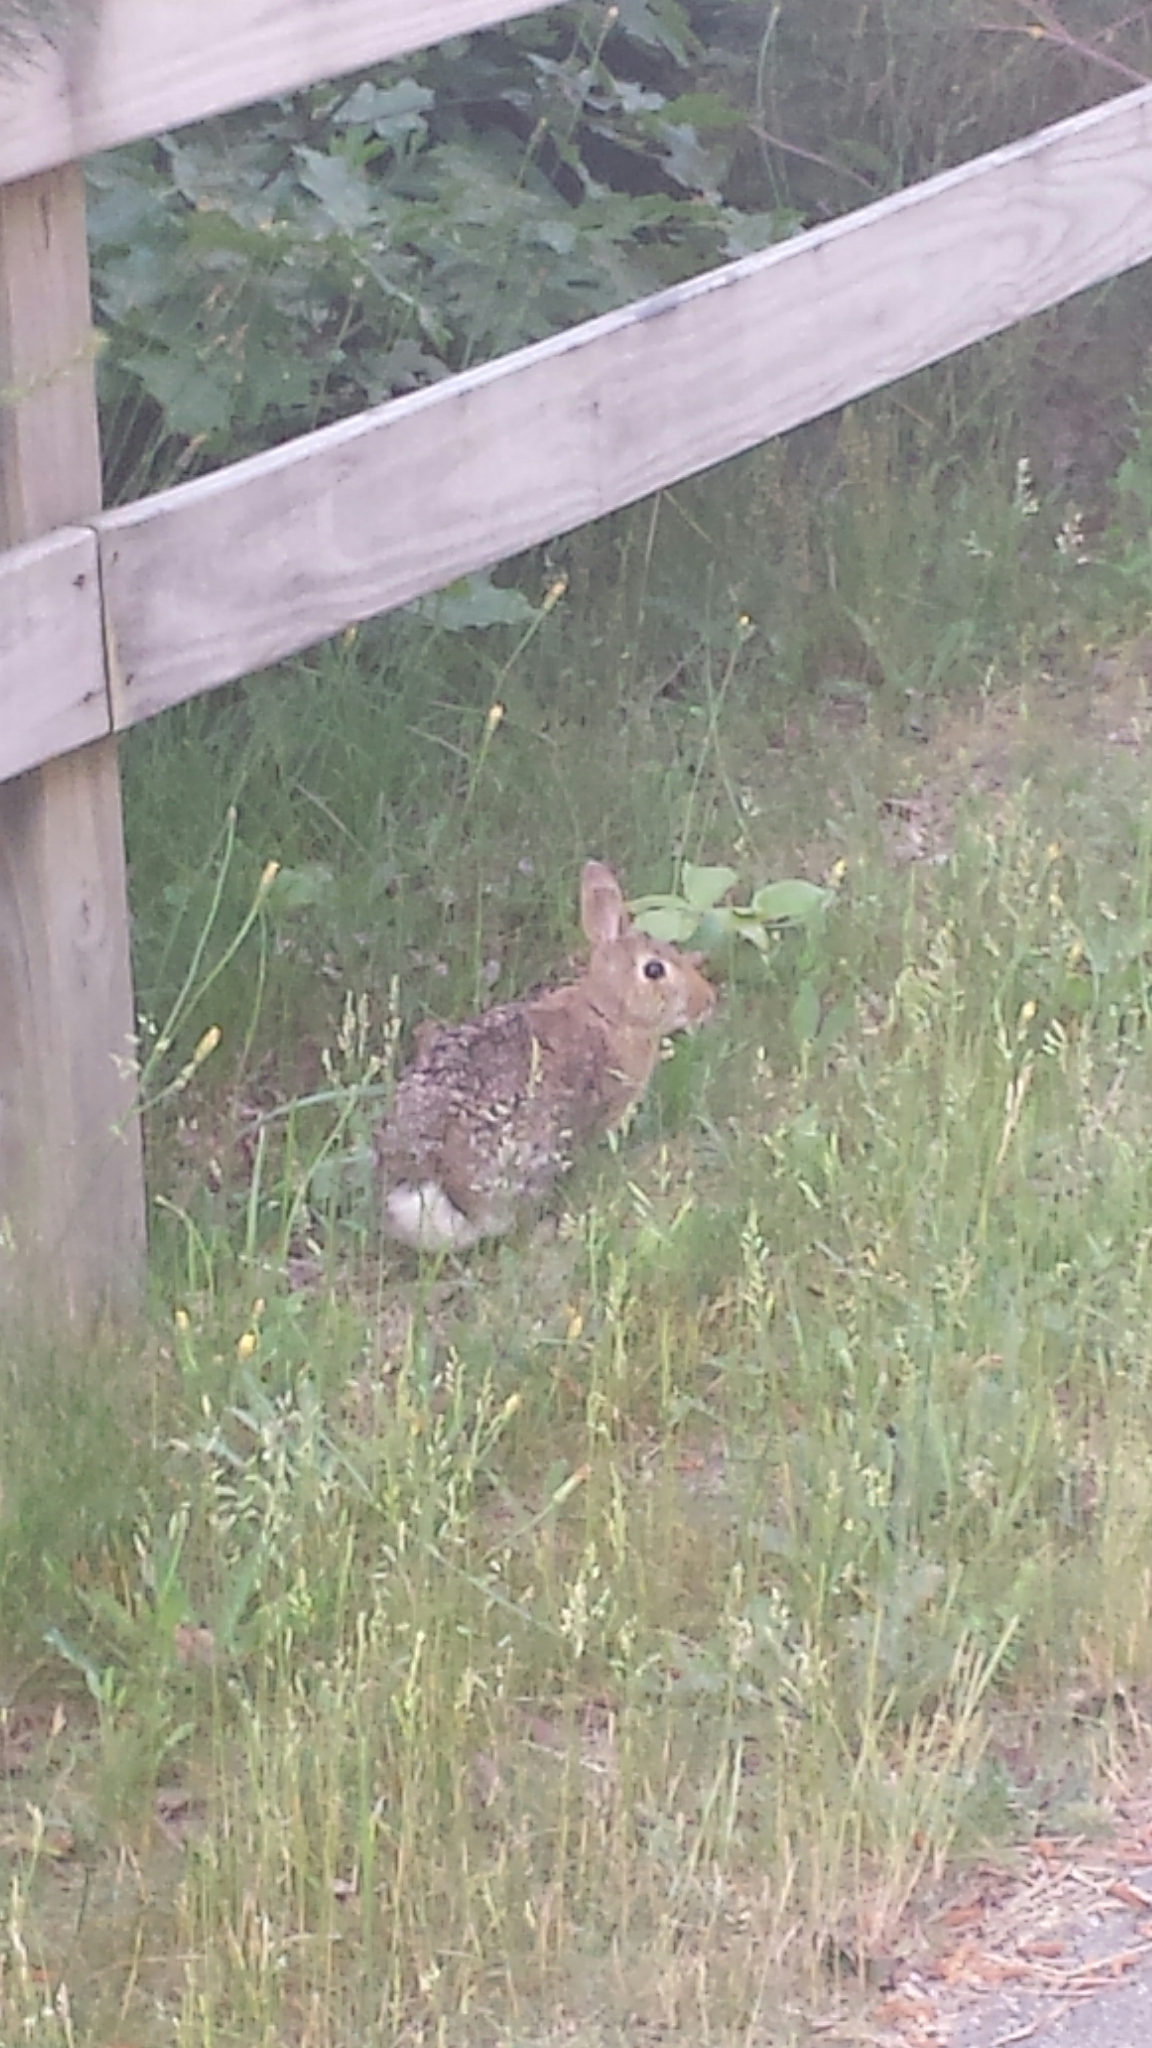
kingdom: Animalia
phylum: Chordata
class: Mammalia
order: Lagomorpha
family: Leporidae
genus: Sylvilagus
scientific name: Sylvilagus floridanus
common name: Eastern cottontail
